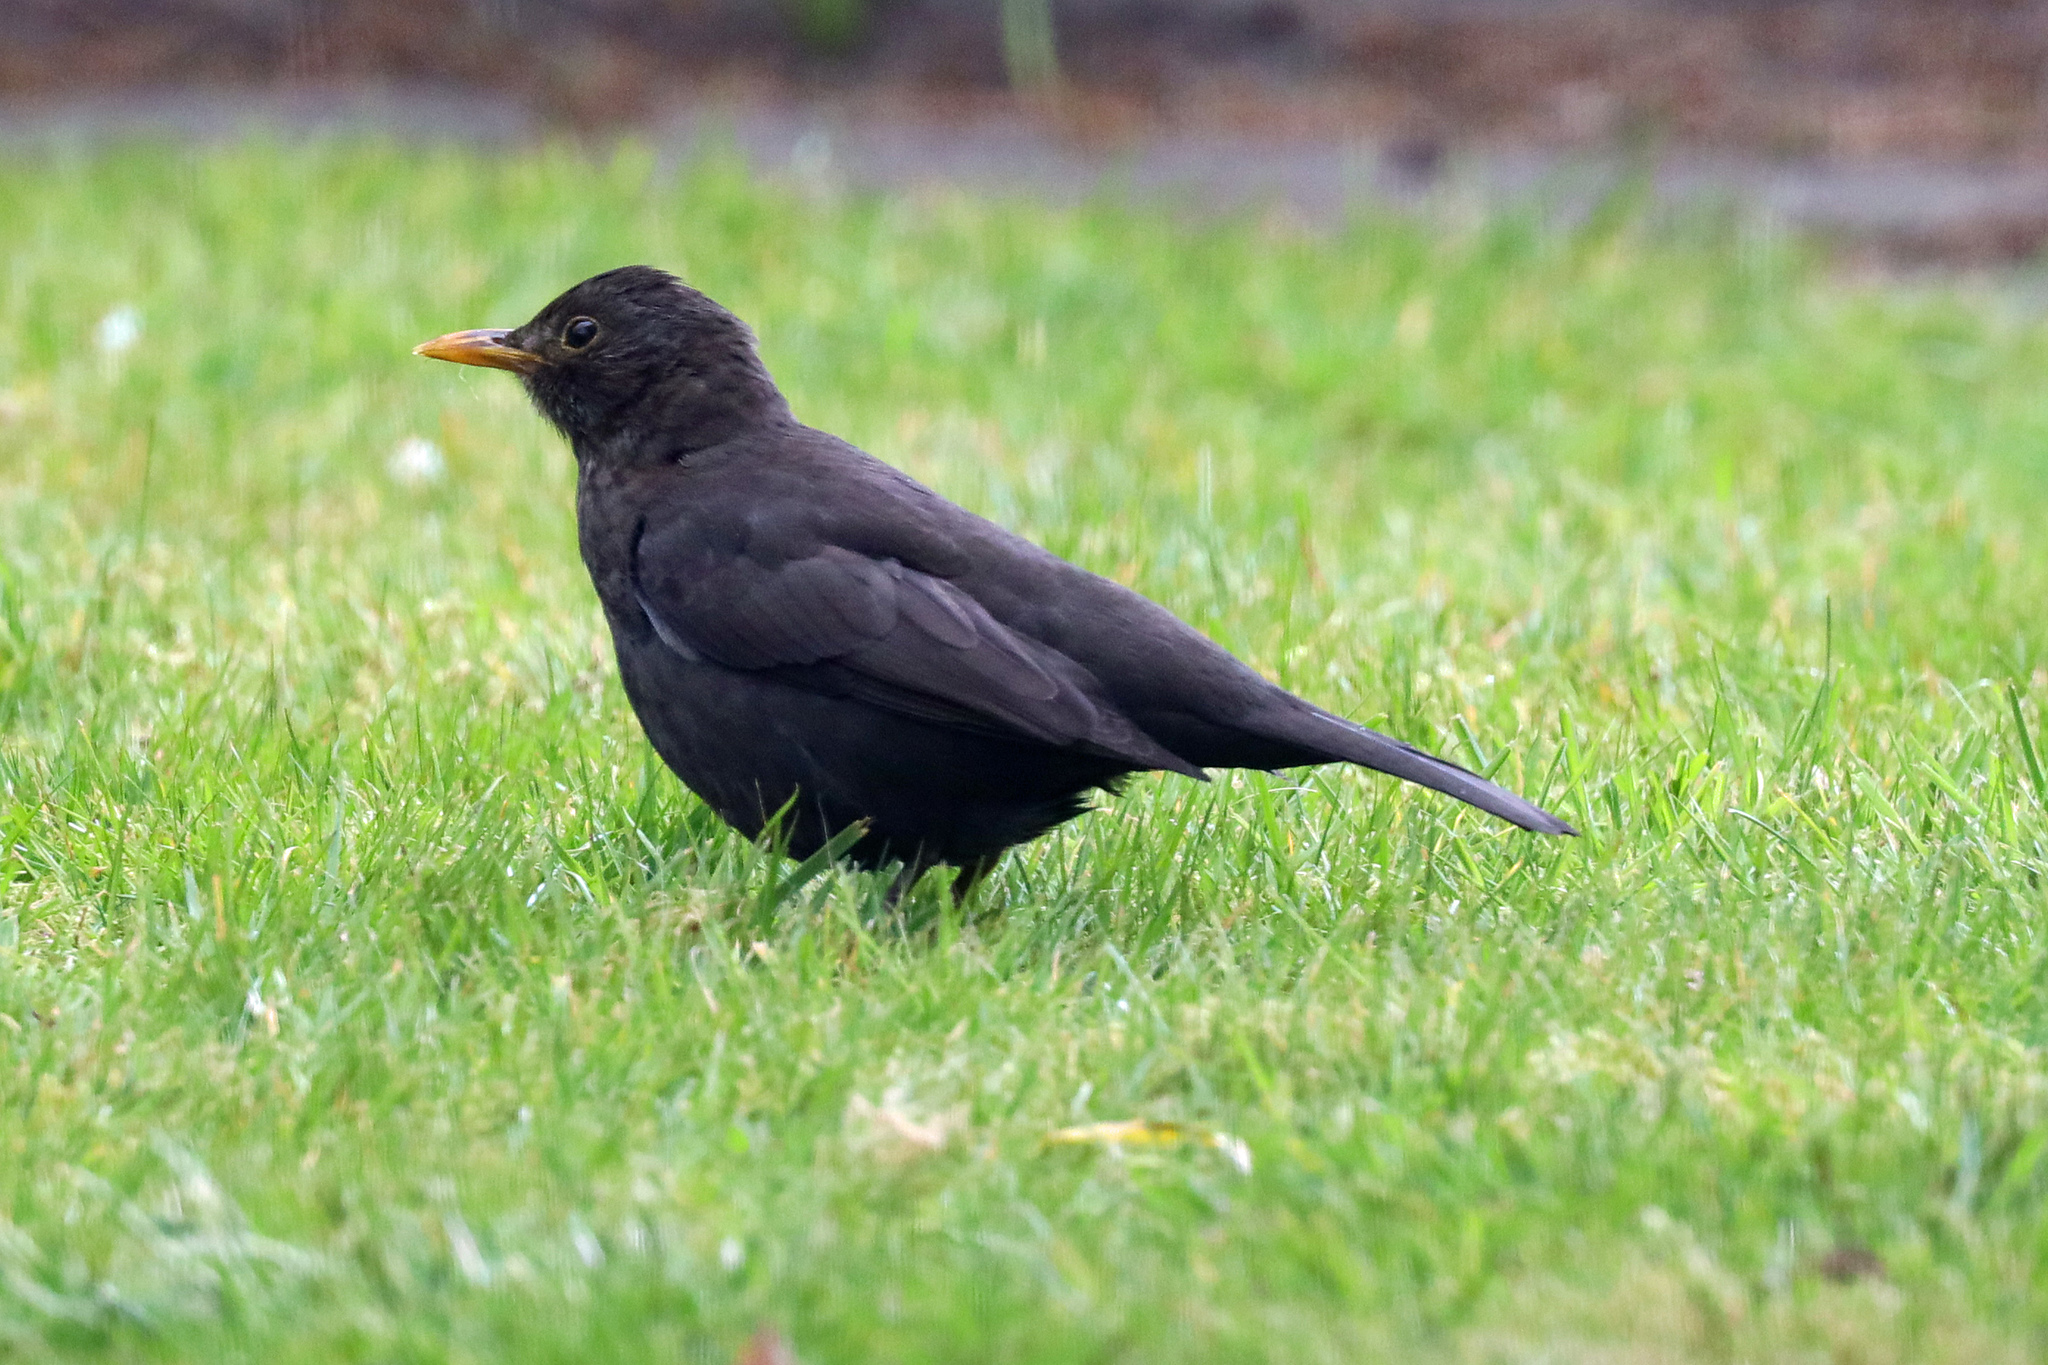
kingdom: Animalia
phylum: Chordata
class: Aves
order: Passeriformes
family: Turdidae
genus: Turdus
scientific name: Turdus merula
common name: Common blackbird
